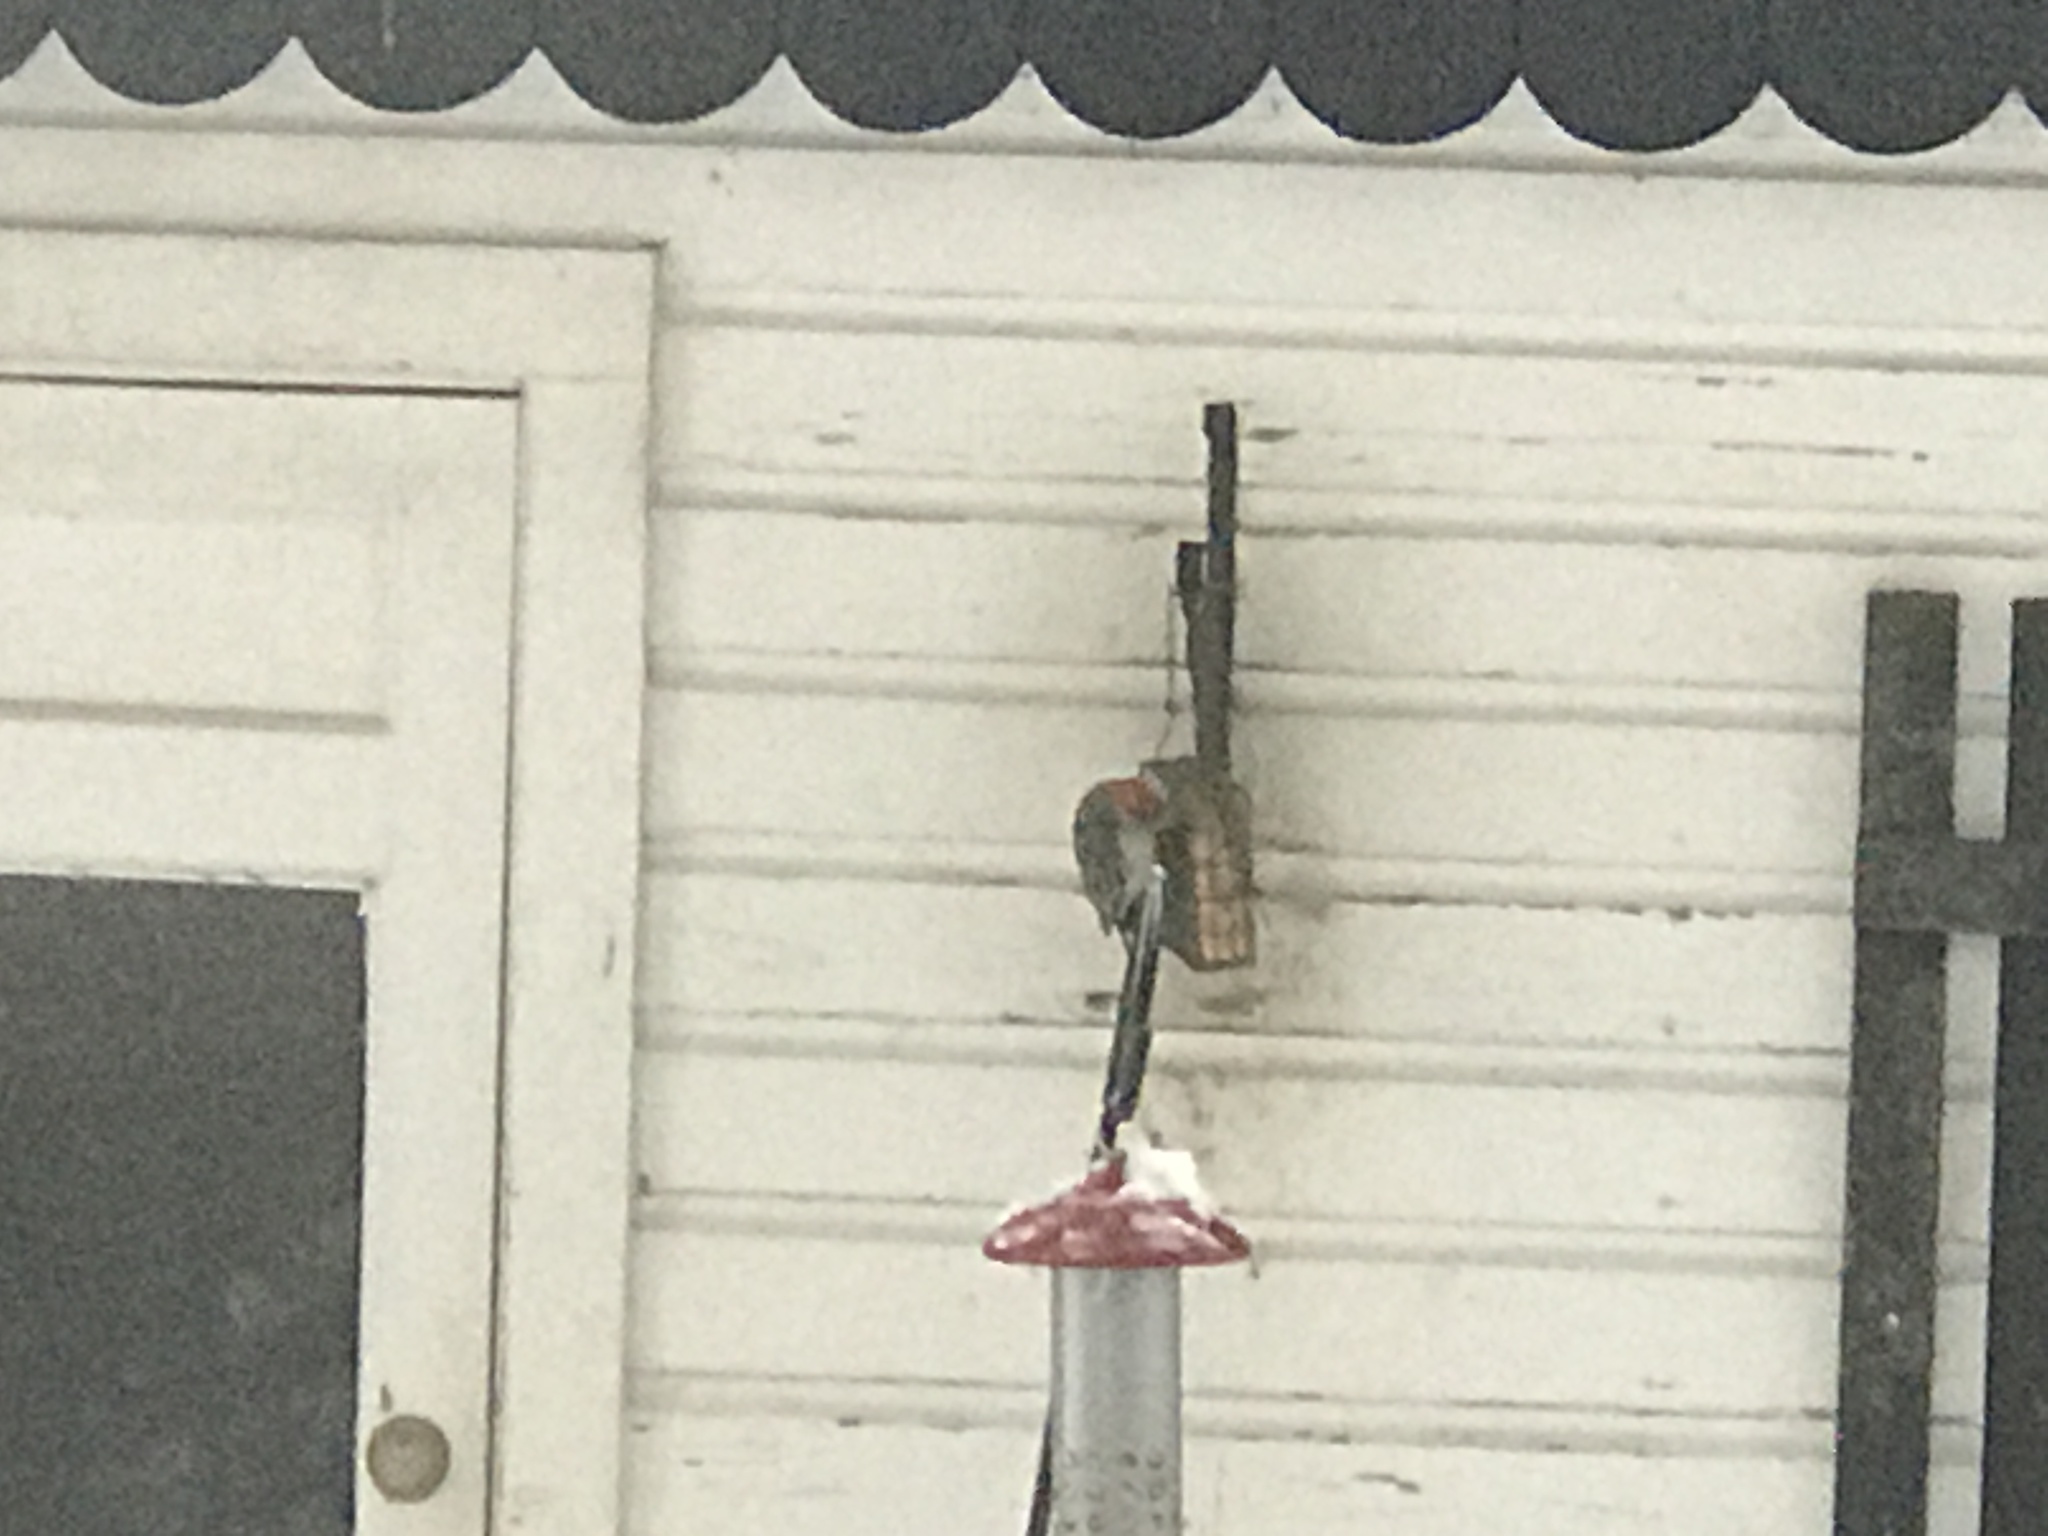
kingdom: Animalia
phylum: Chordata
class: Aves
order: Piciformes
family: Picidae
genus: Melanerpes
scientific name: Melanerpes carolinus
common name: Red-bellied woodpecker
